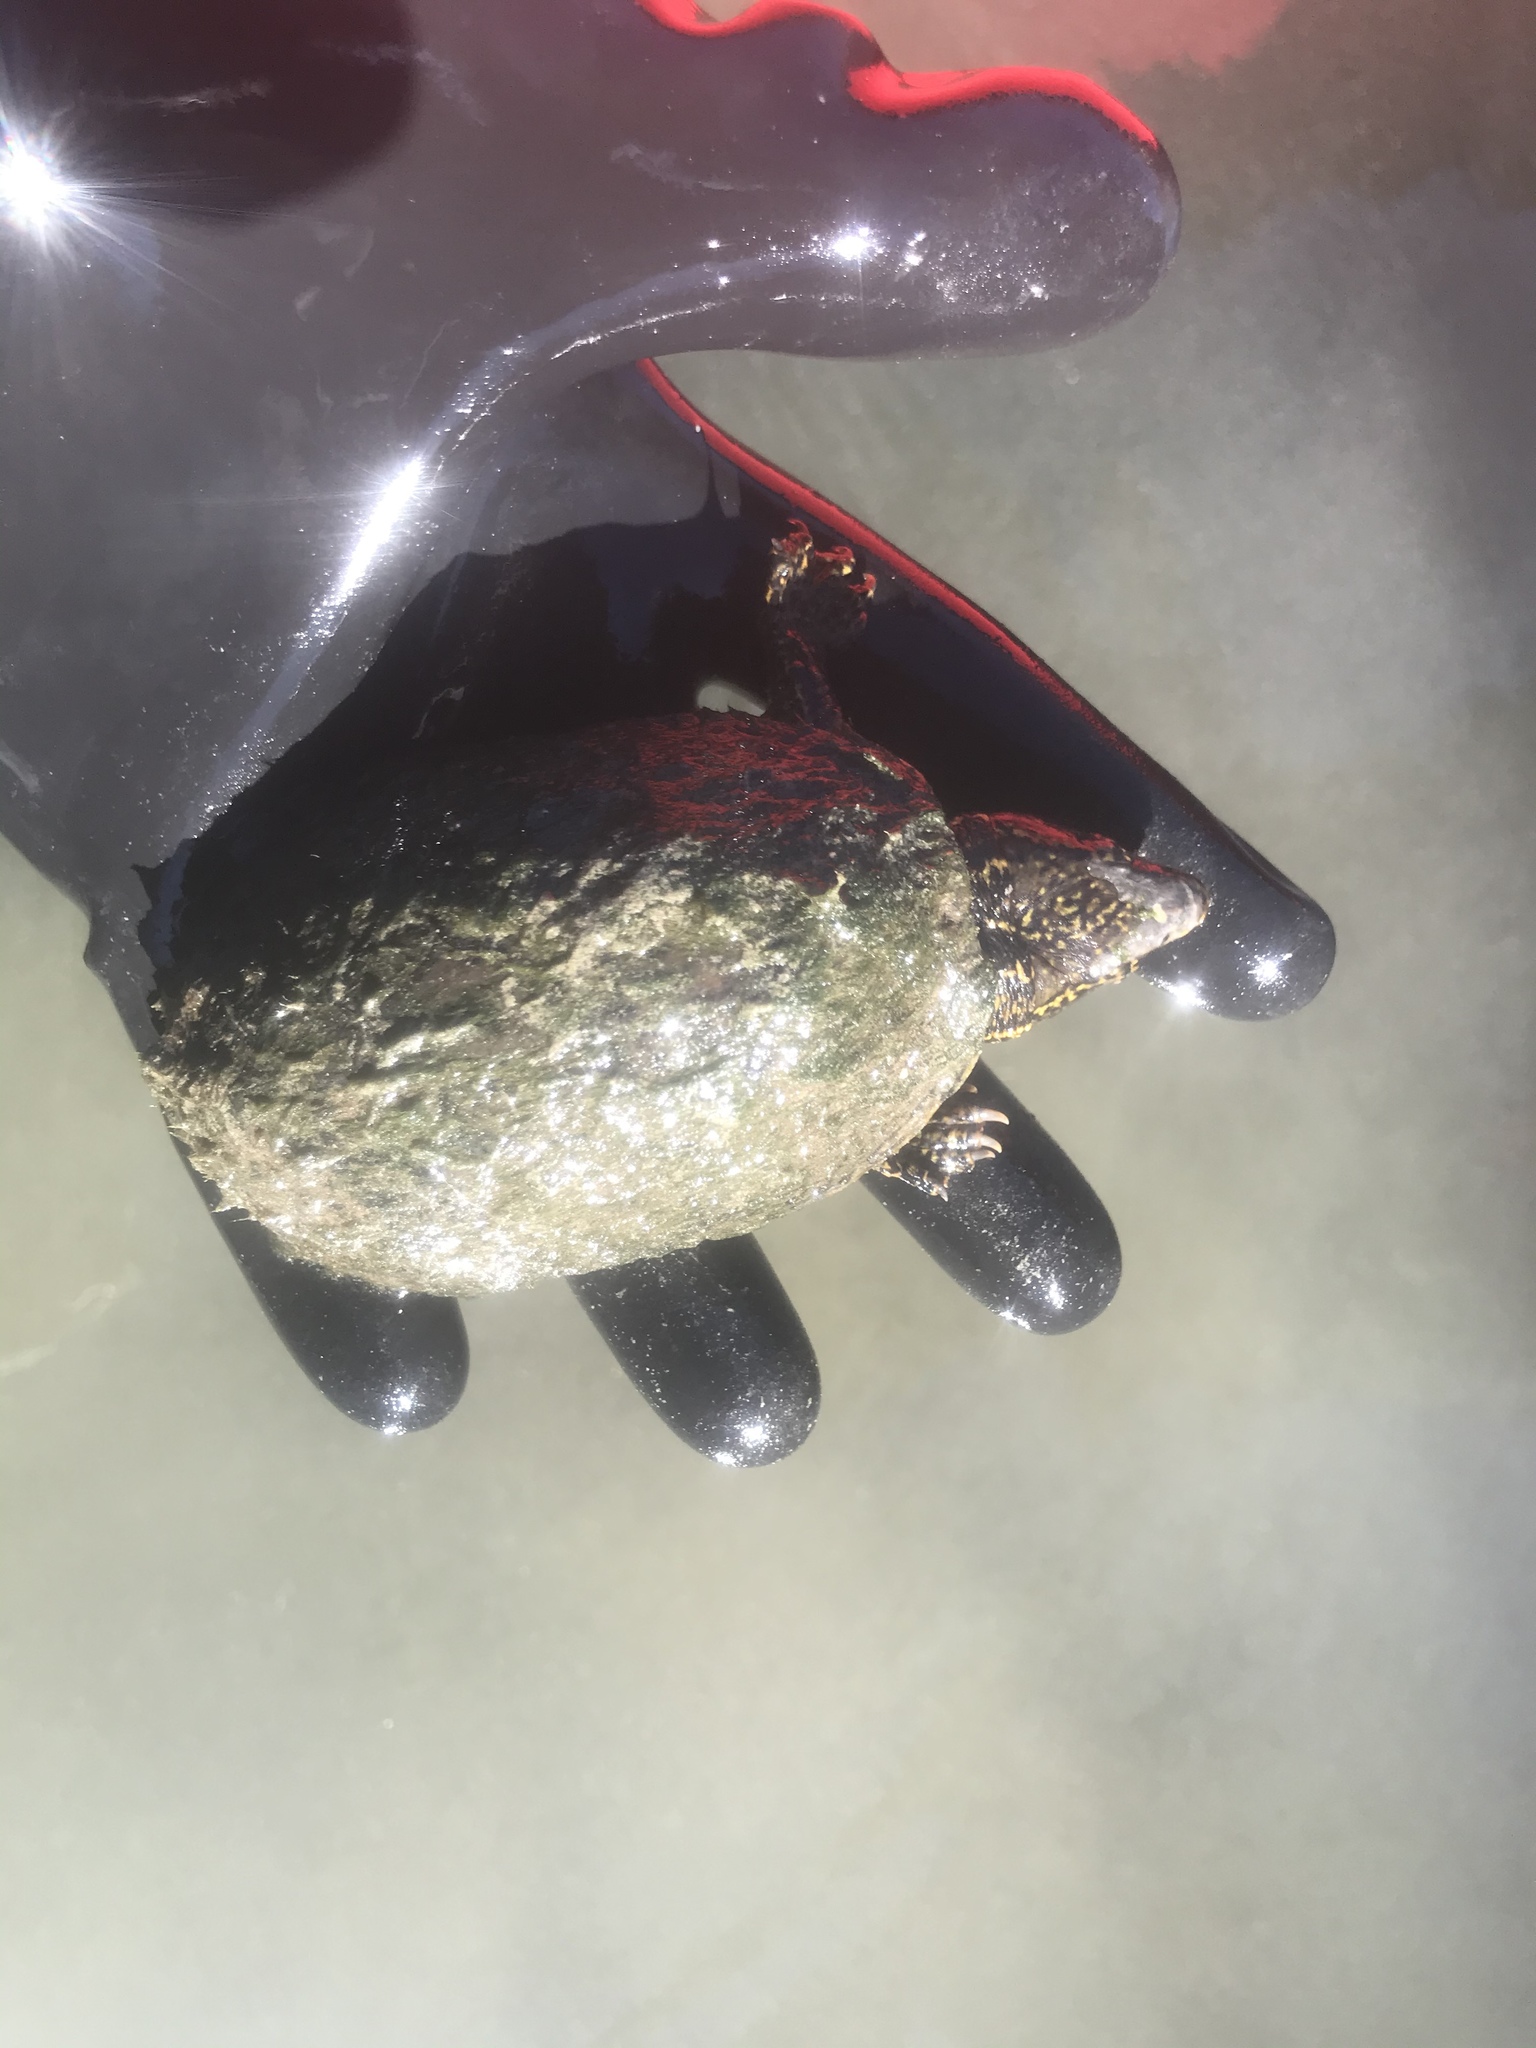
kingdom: Animalia
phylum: Chordata
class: Testudines
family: Kinosternidae
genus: Sternotherus
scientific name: Sternotherus odoratus
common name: Common musk turtle
